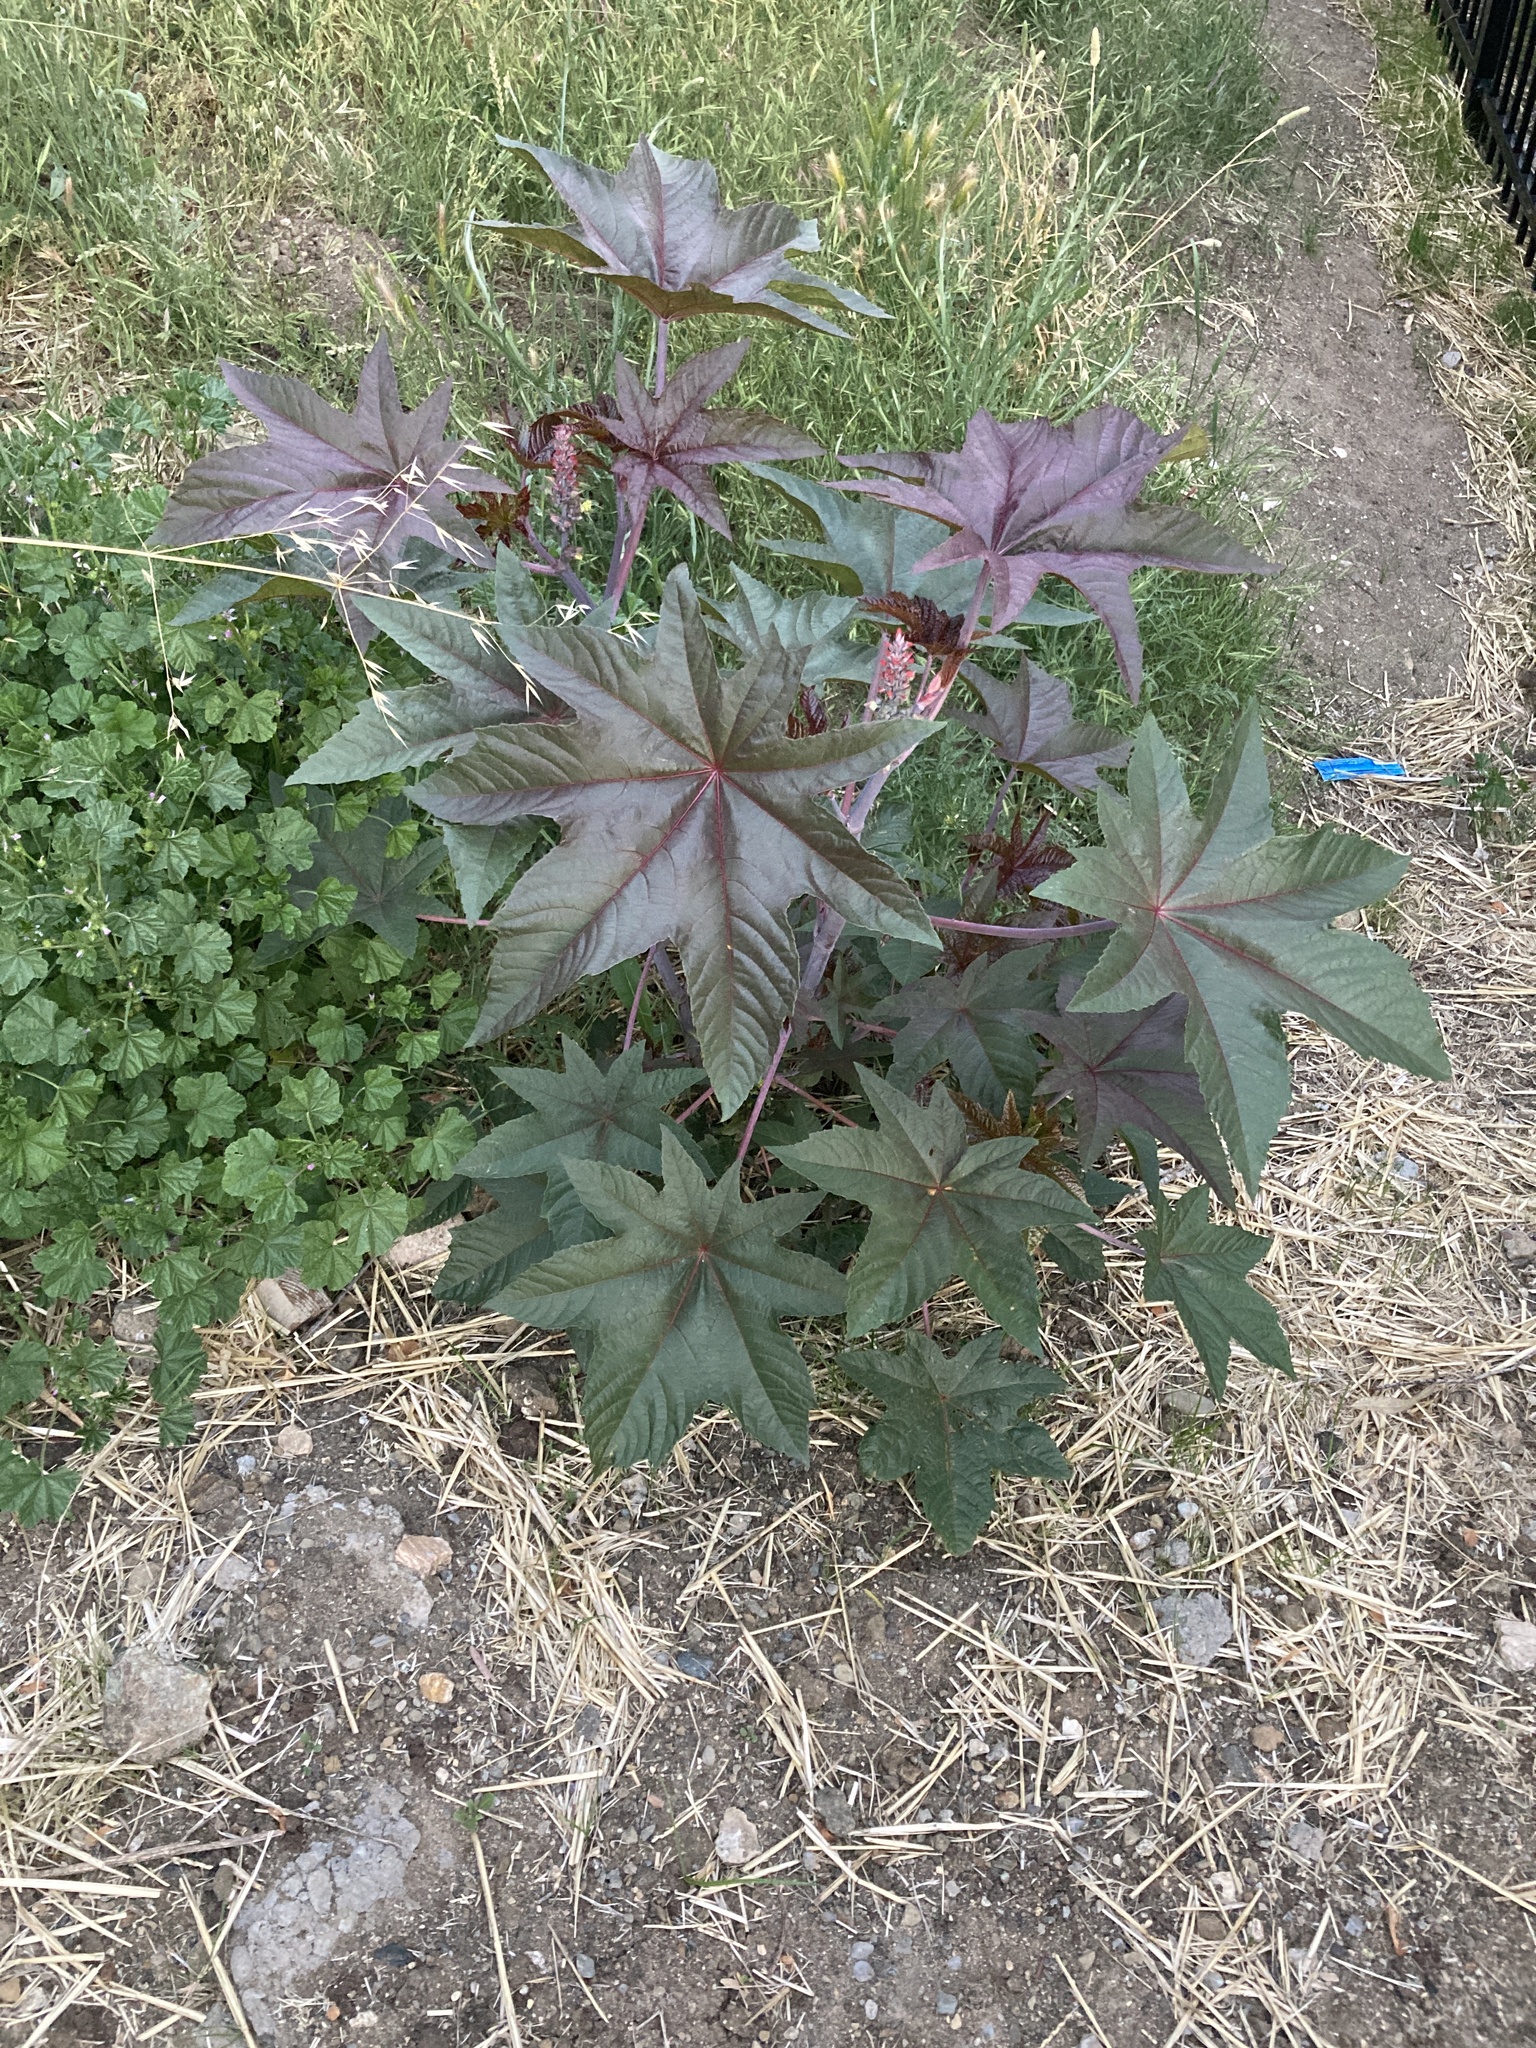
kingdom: Plantae
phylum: Tracheophyta
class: Magnoliopsida
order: Malpighiales
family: Euphorbiaceae
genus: Ricinus
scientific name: Ricinus communis
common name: Castor-oil-plant
